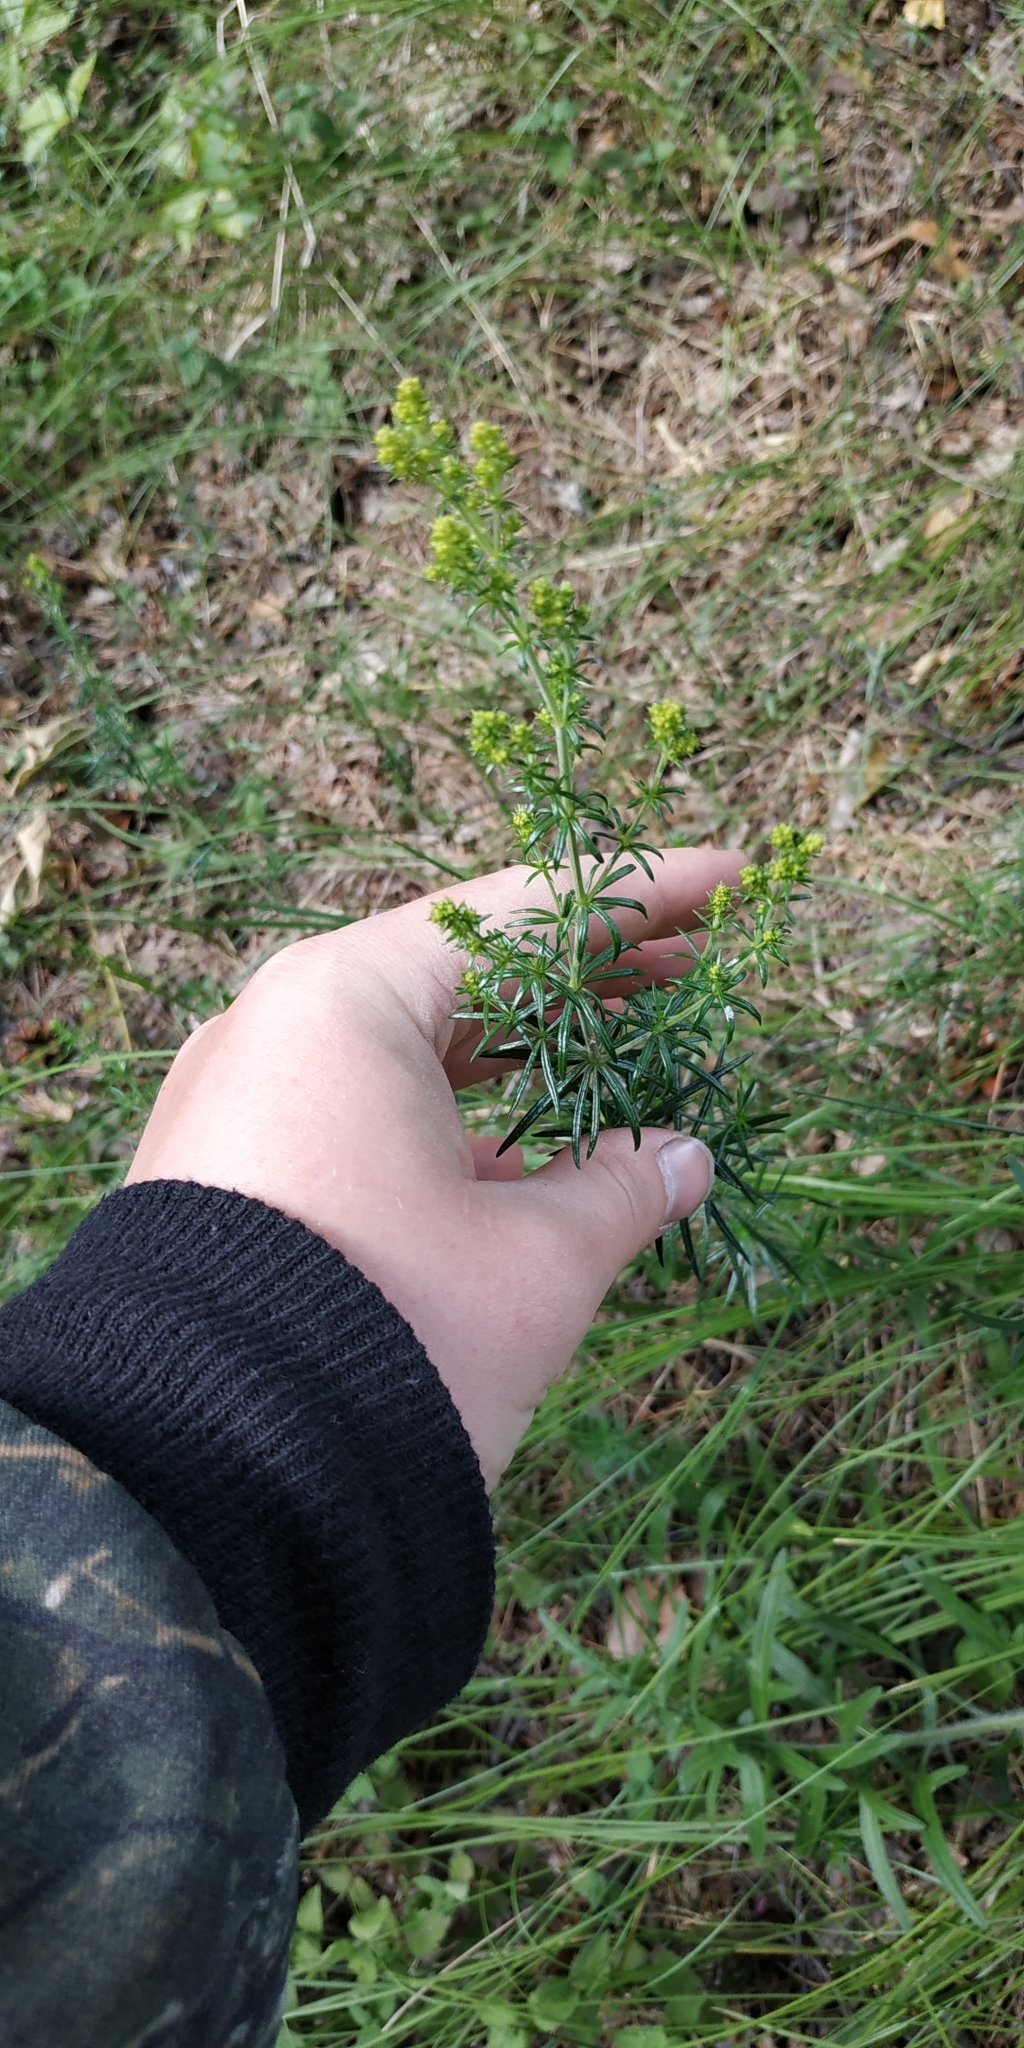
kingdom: Plantae
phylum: Tracheophyta
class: Magnoliopsida
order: Gentianales
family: Rubiaceae
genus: Galium
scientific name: Galium verum
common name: Lady's bedstraw
